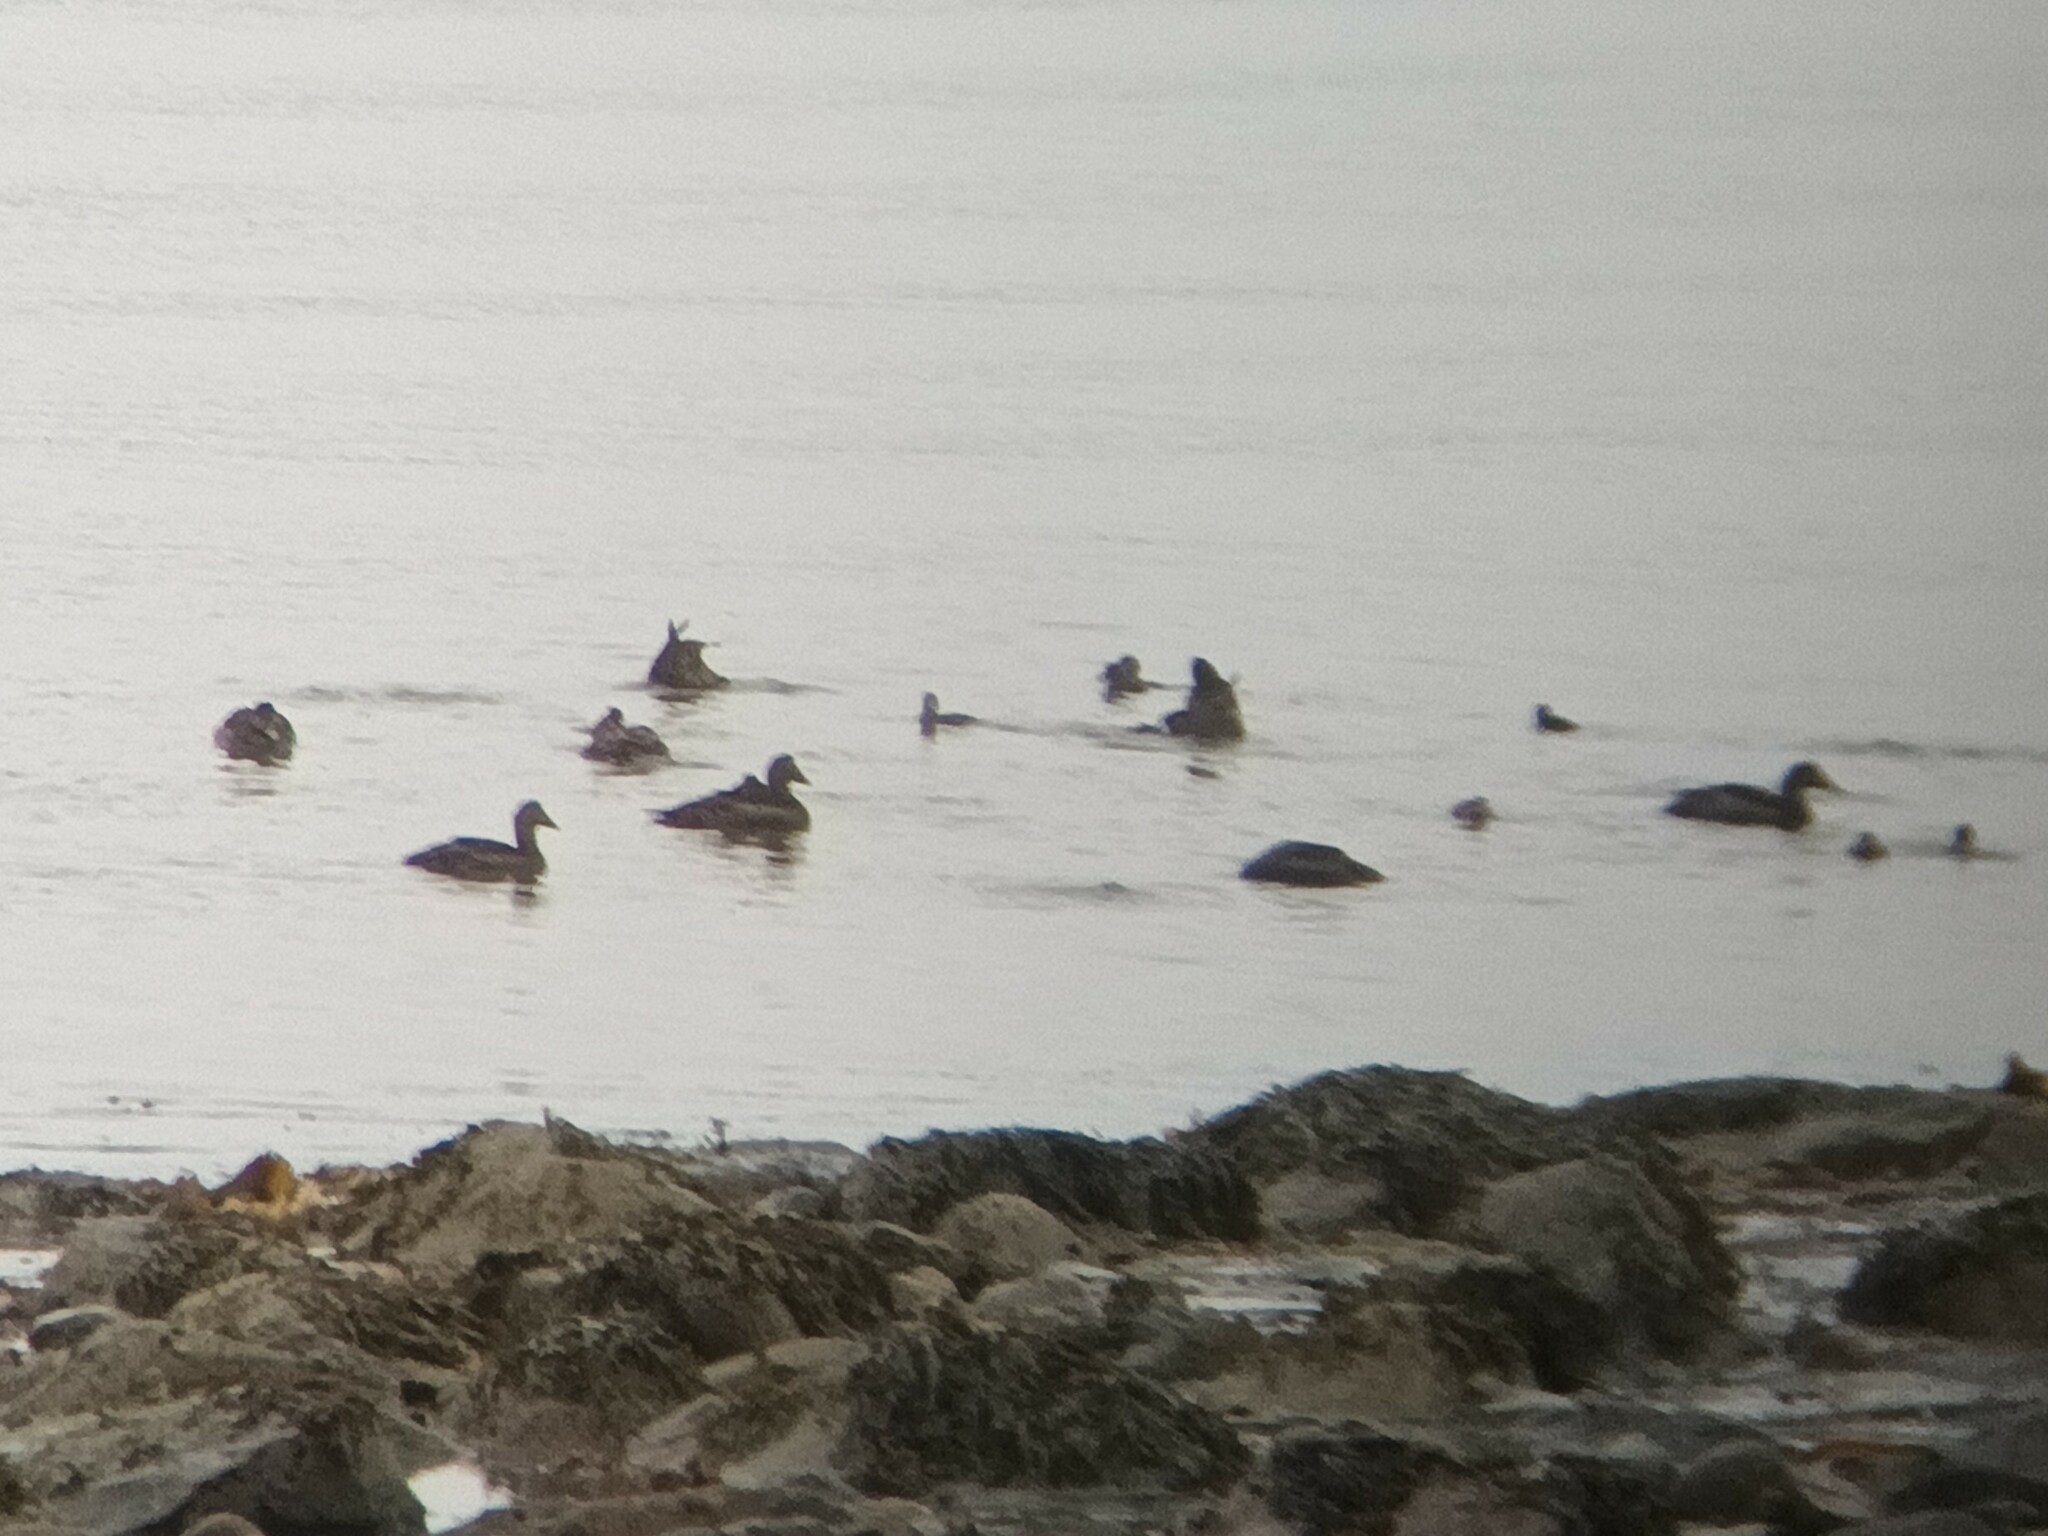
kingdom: Animalia
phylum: Chordata
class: Aves
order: Anseriformes
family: Anatidae
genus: Somateria
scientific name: Somateria mollissima
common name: Common eider
